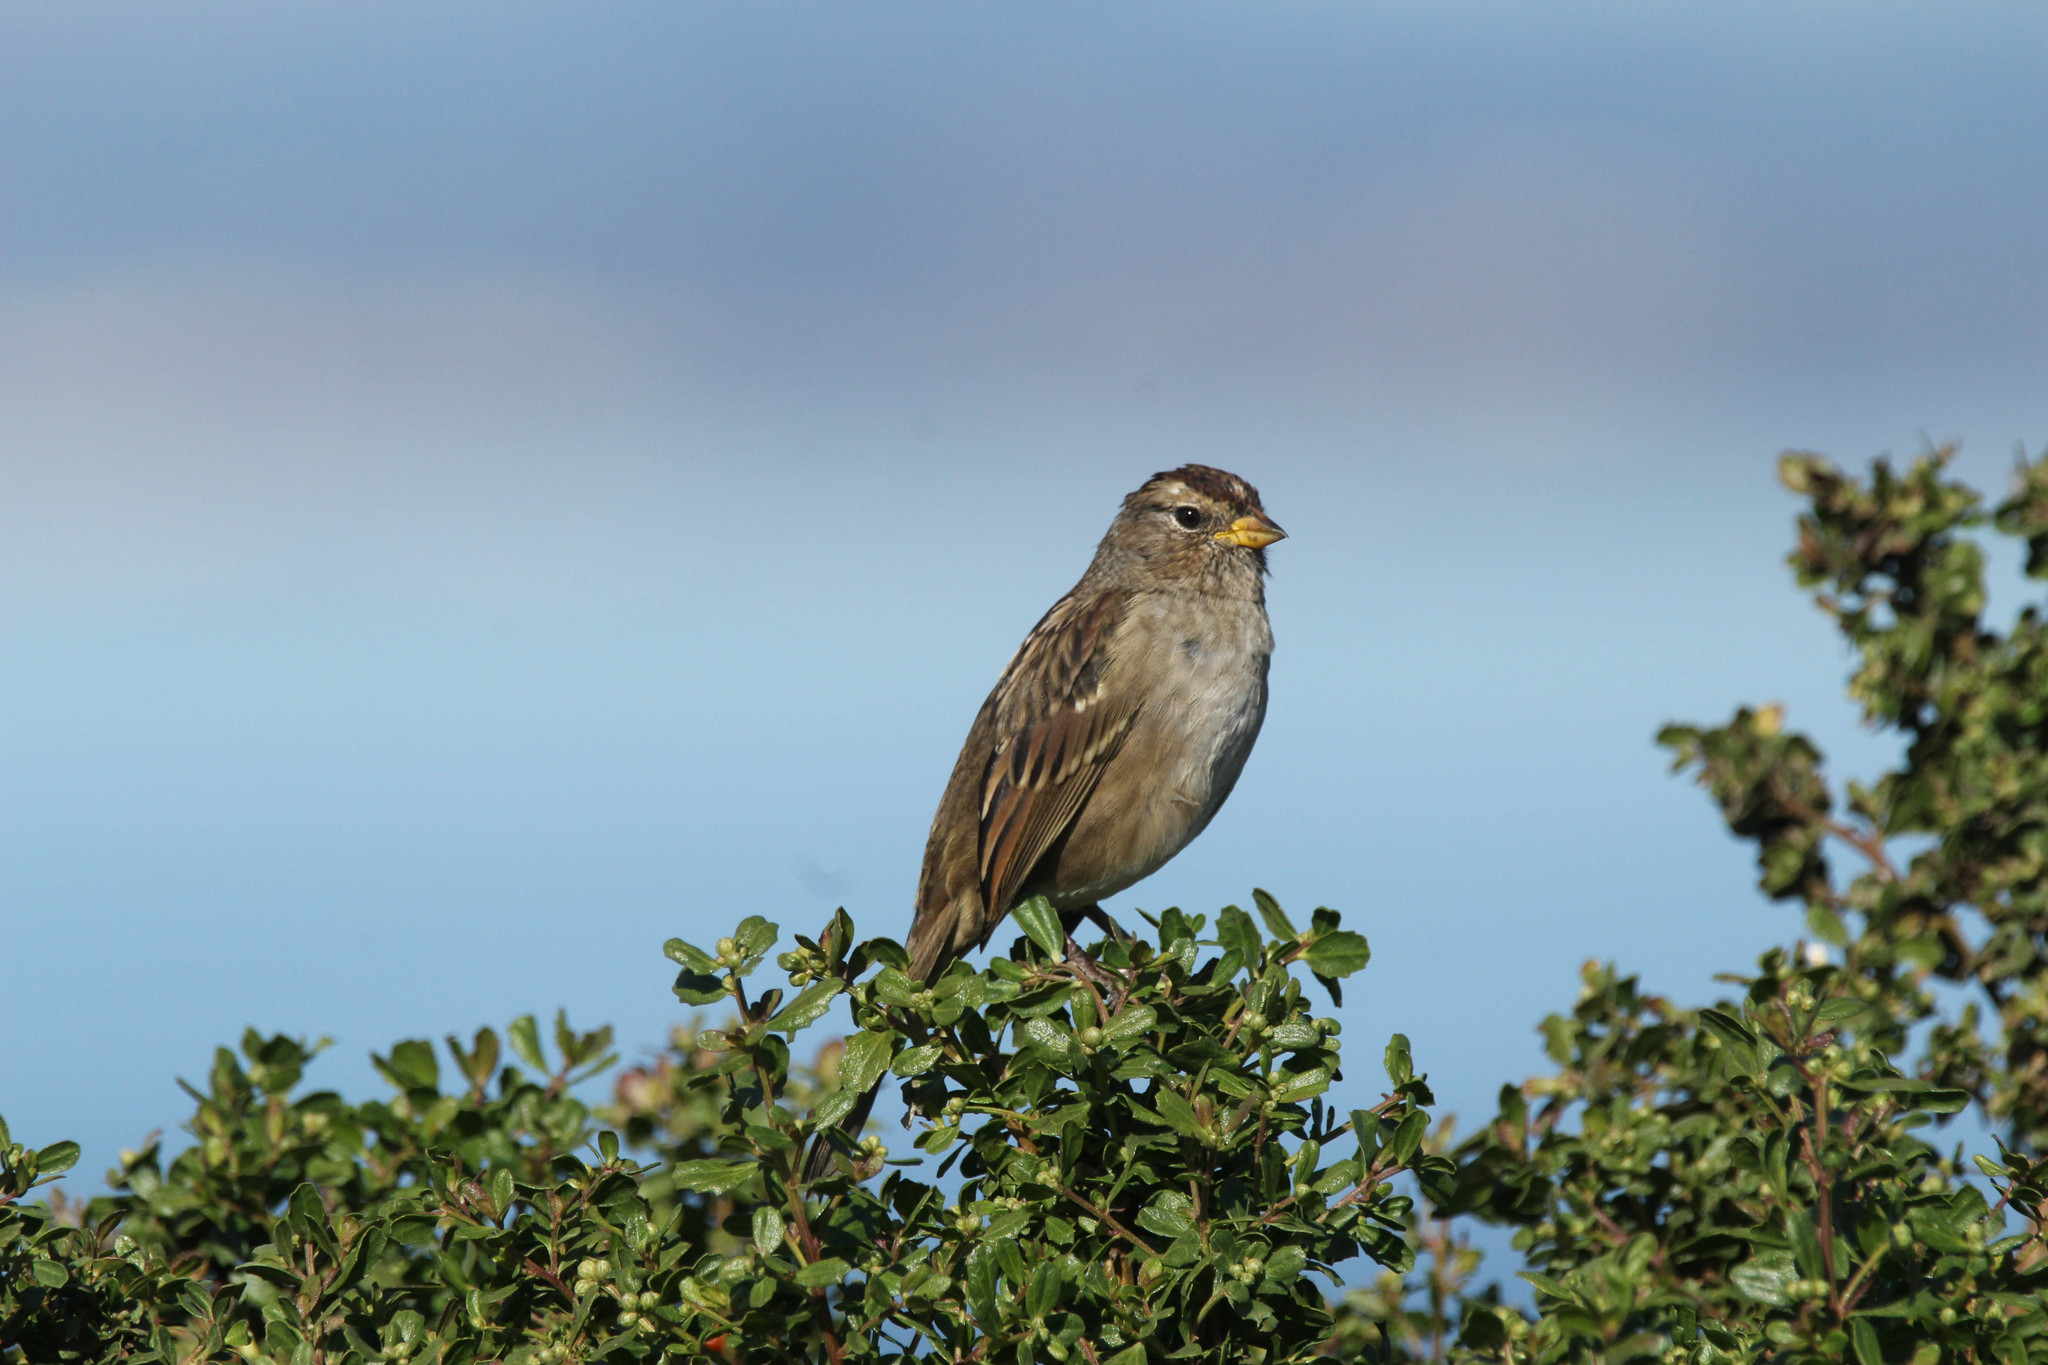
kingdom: Animalia
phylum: Chordata
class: Aves
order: Passeriformes
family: Passerellidae
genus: Zonotrichia
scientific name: Zonotrichia leucophrys
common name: White-crowned sparrow
